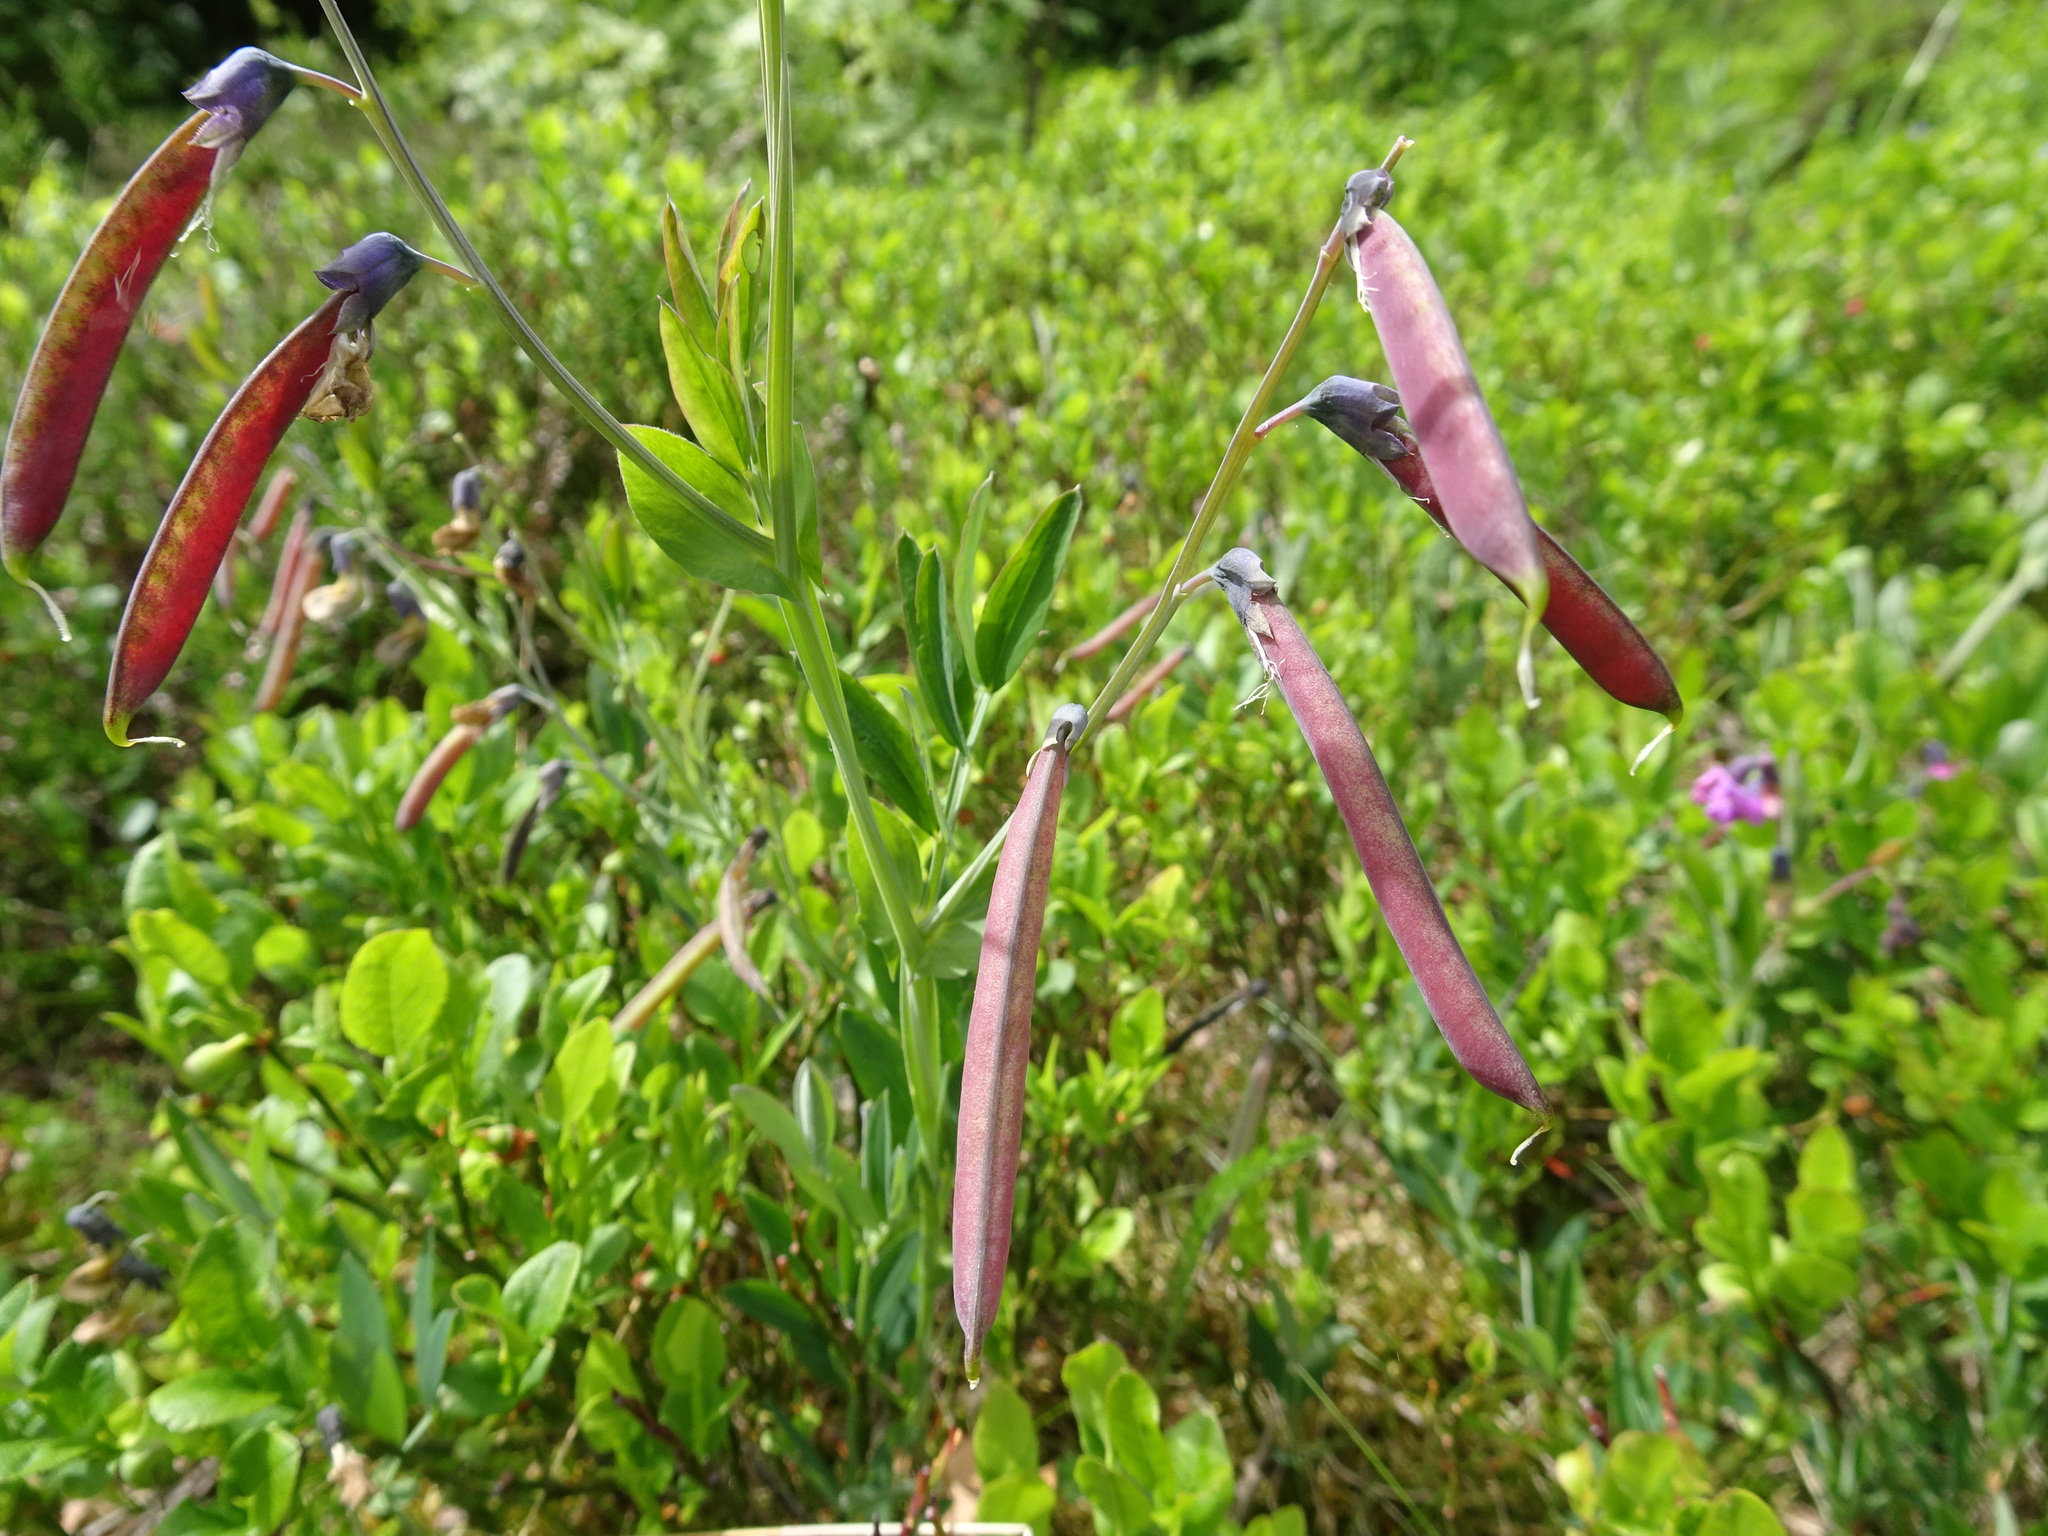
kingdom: Plantae
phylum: Tracheophyta
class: Magnoliopsida
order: Fabales
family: Fabaceae
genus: Lathyrus
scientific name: Lathyrus linifolius
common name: Bitter-vetch
